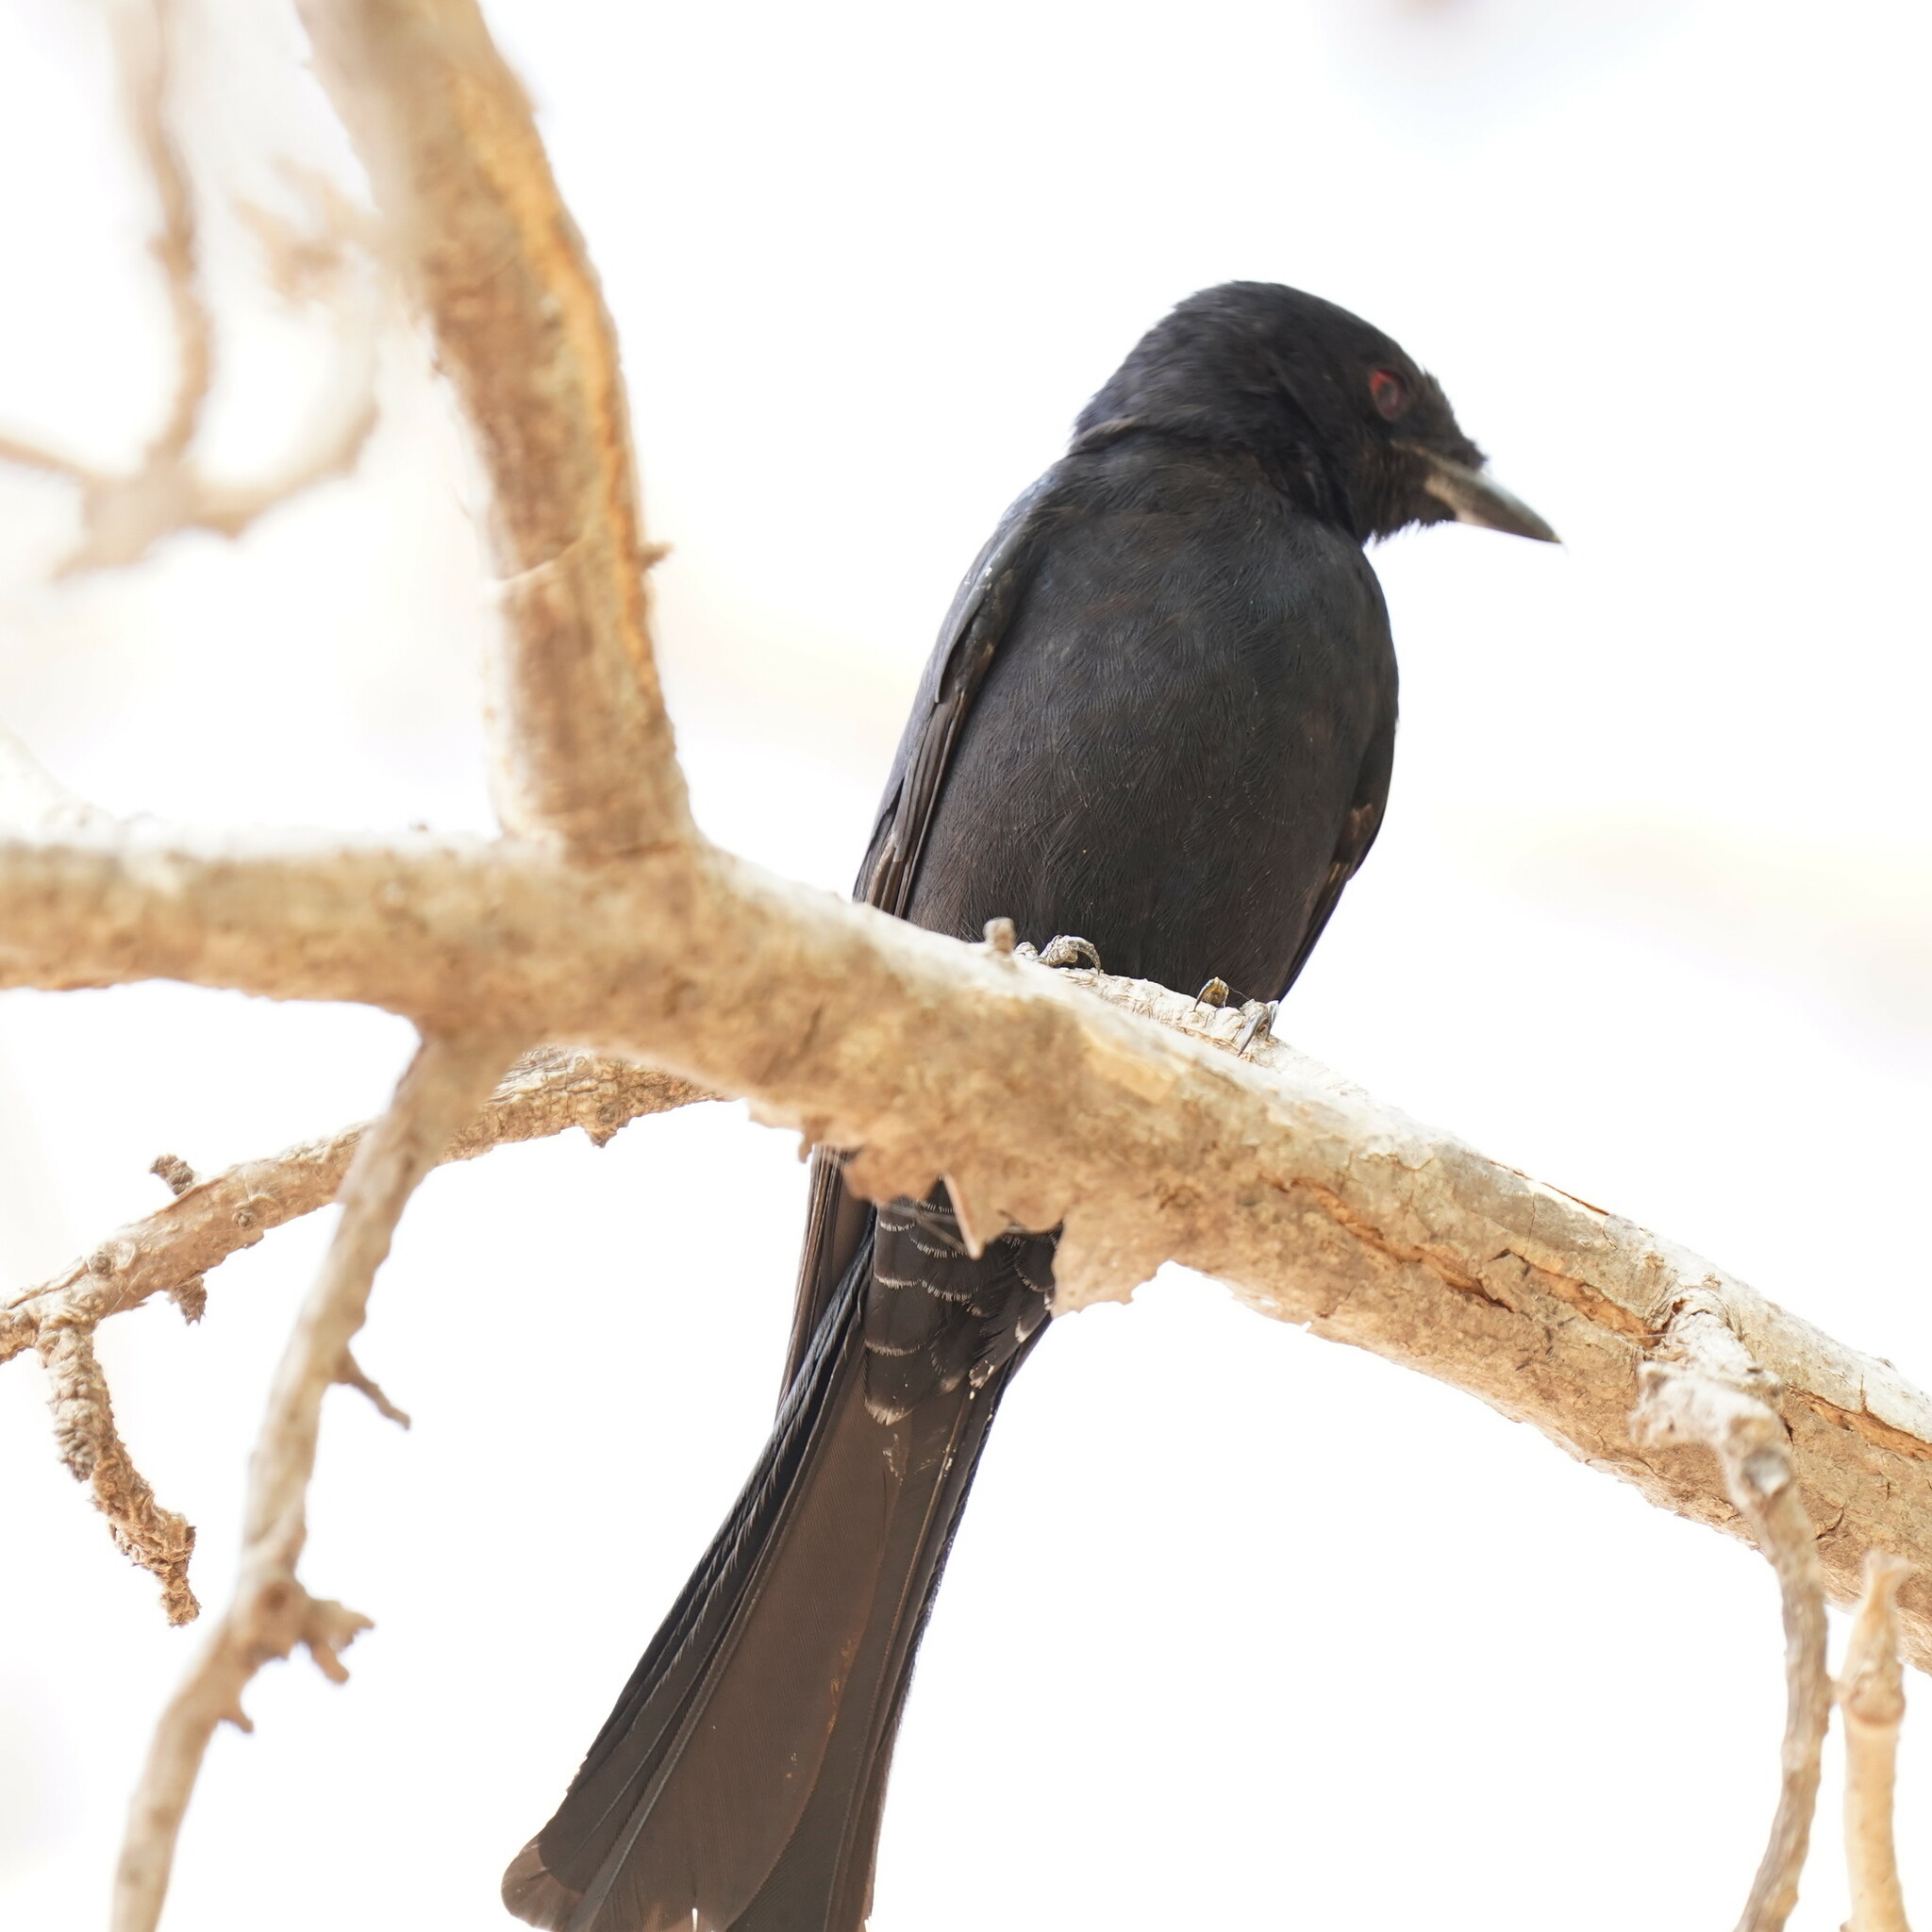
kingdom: Animalia
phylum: Chordata
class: Aves
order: Passeriformes
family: Dicruridae
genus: Dicrurus
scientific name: Dicrurus adsimilis
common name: Fork-tailed drongo
